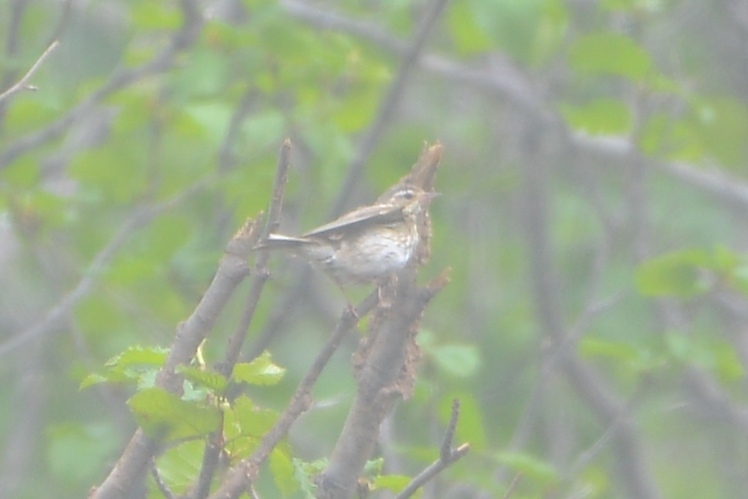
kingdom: Animalia
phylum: Chordata
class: Aves
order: Passeriformes
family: Motacillidae
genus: Anthus
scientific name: Anthus hodgsoni
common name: Olive-backed pipit
